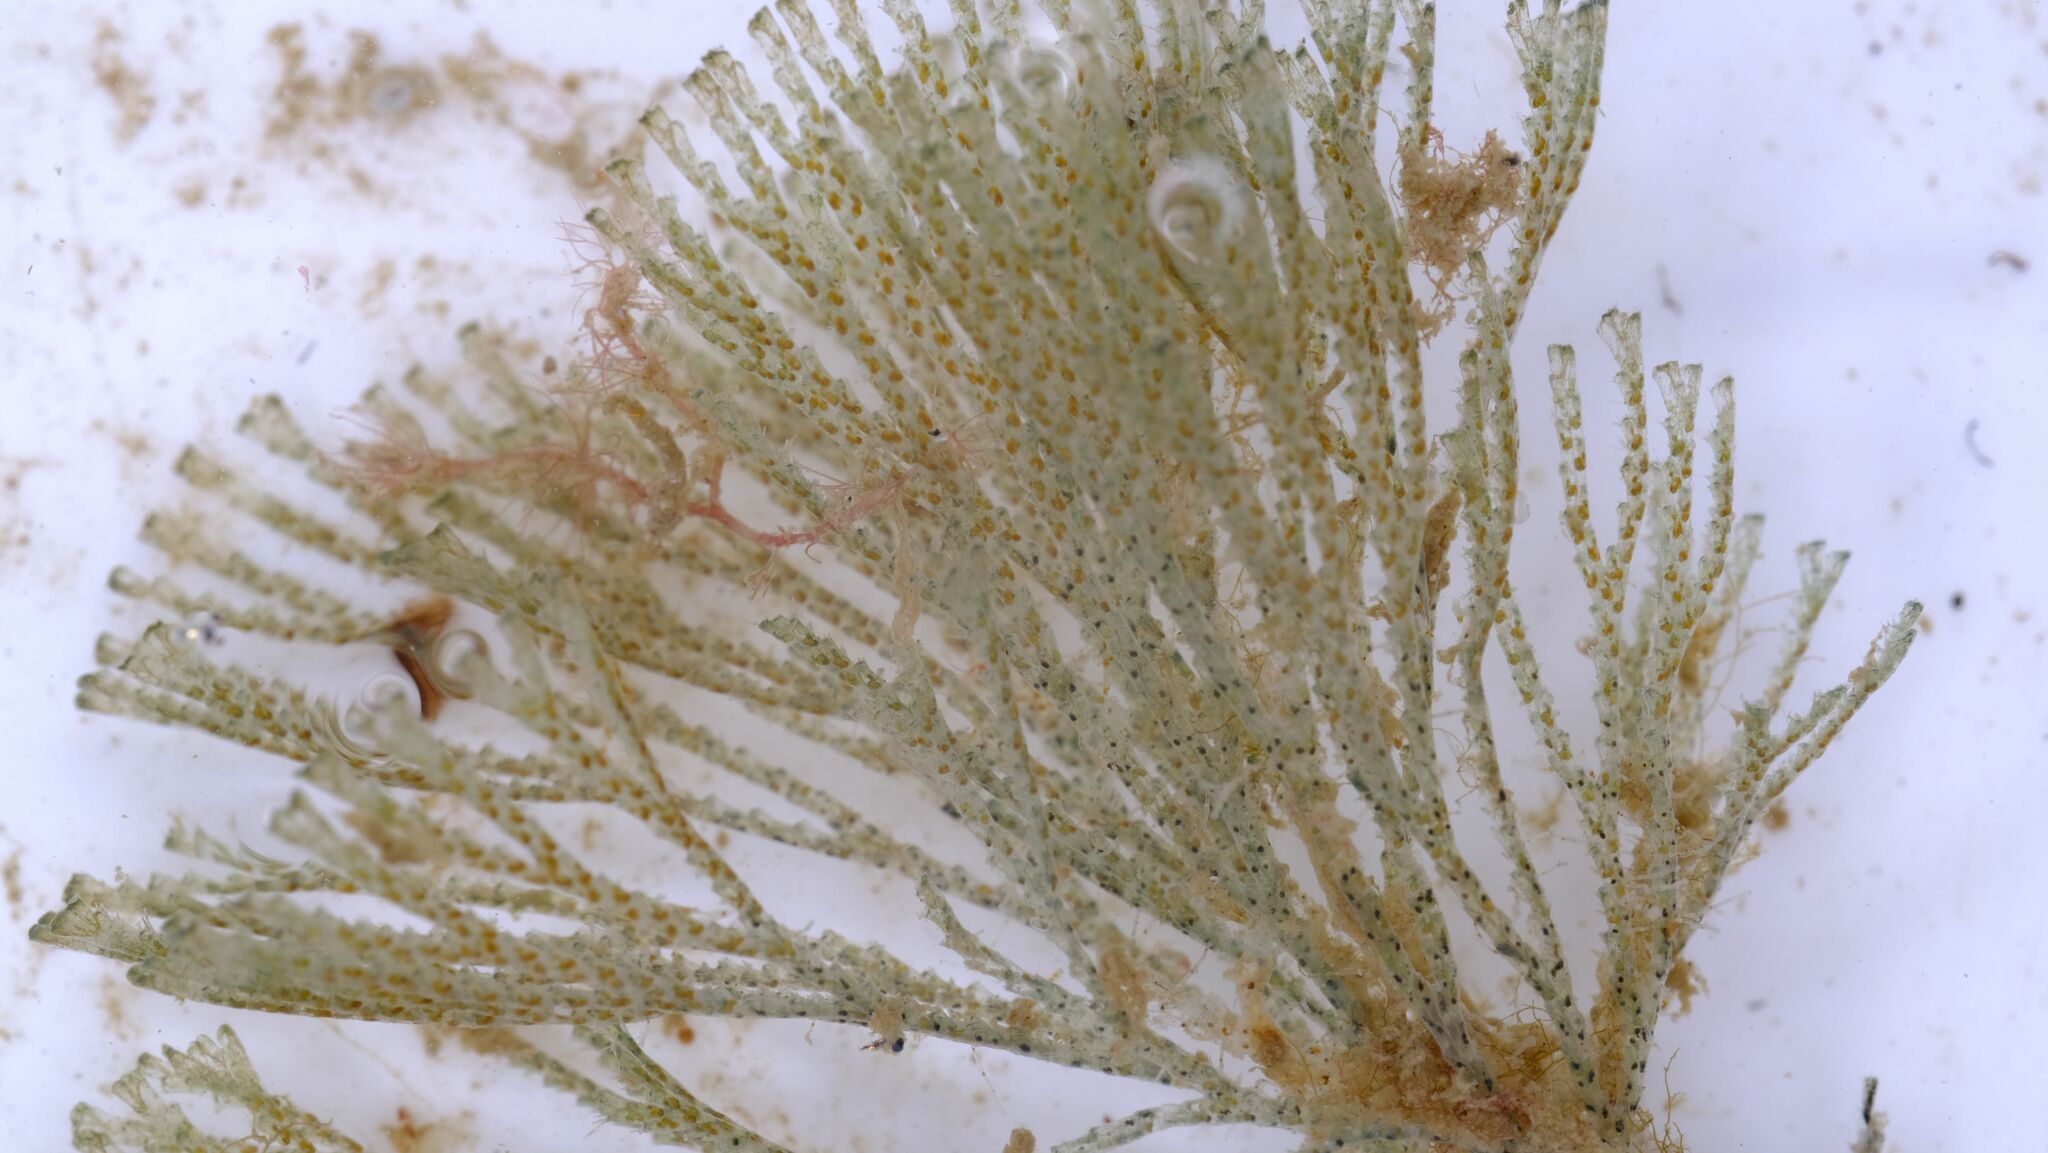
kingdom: Animalia
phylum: Bryozoa
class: Gymnolaemata
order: Cheilostomatida
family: Bugulidae
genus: Virididentula
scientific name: Virididentula dentata
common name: Bryozoan
